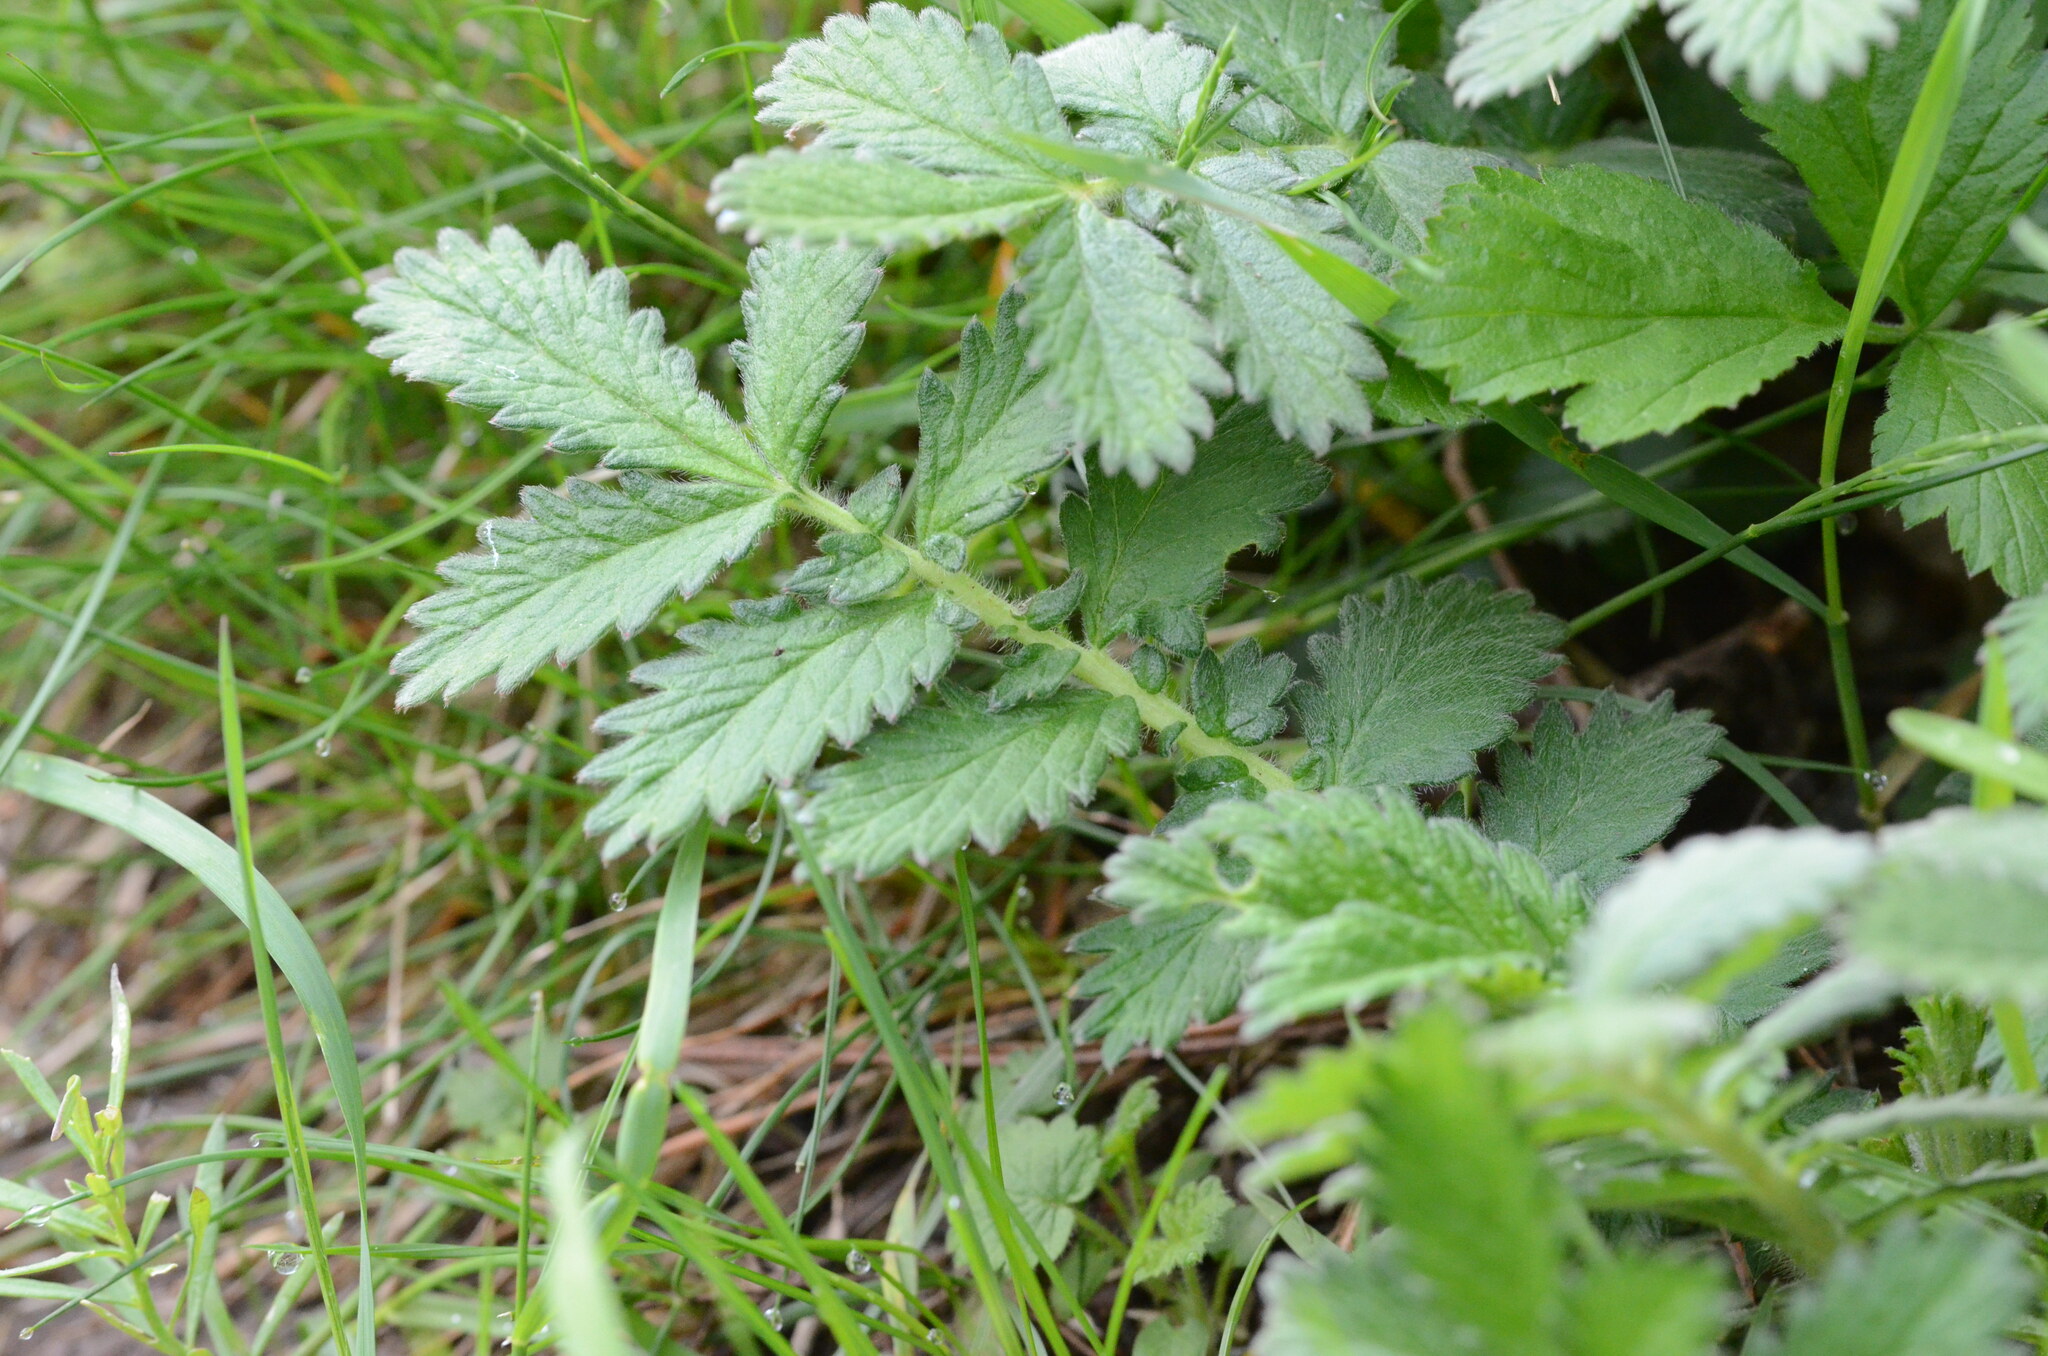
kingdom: Plantae
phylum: Tracheophyta
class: Magnoliopsida
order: Rosales
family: Rosaceae
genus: Agrimonia
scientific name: Agrimonia eupatoria
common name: Agrimony
